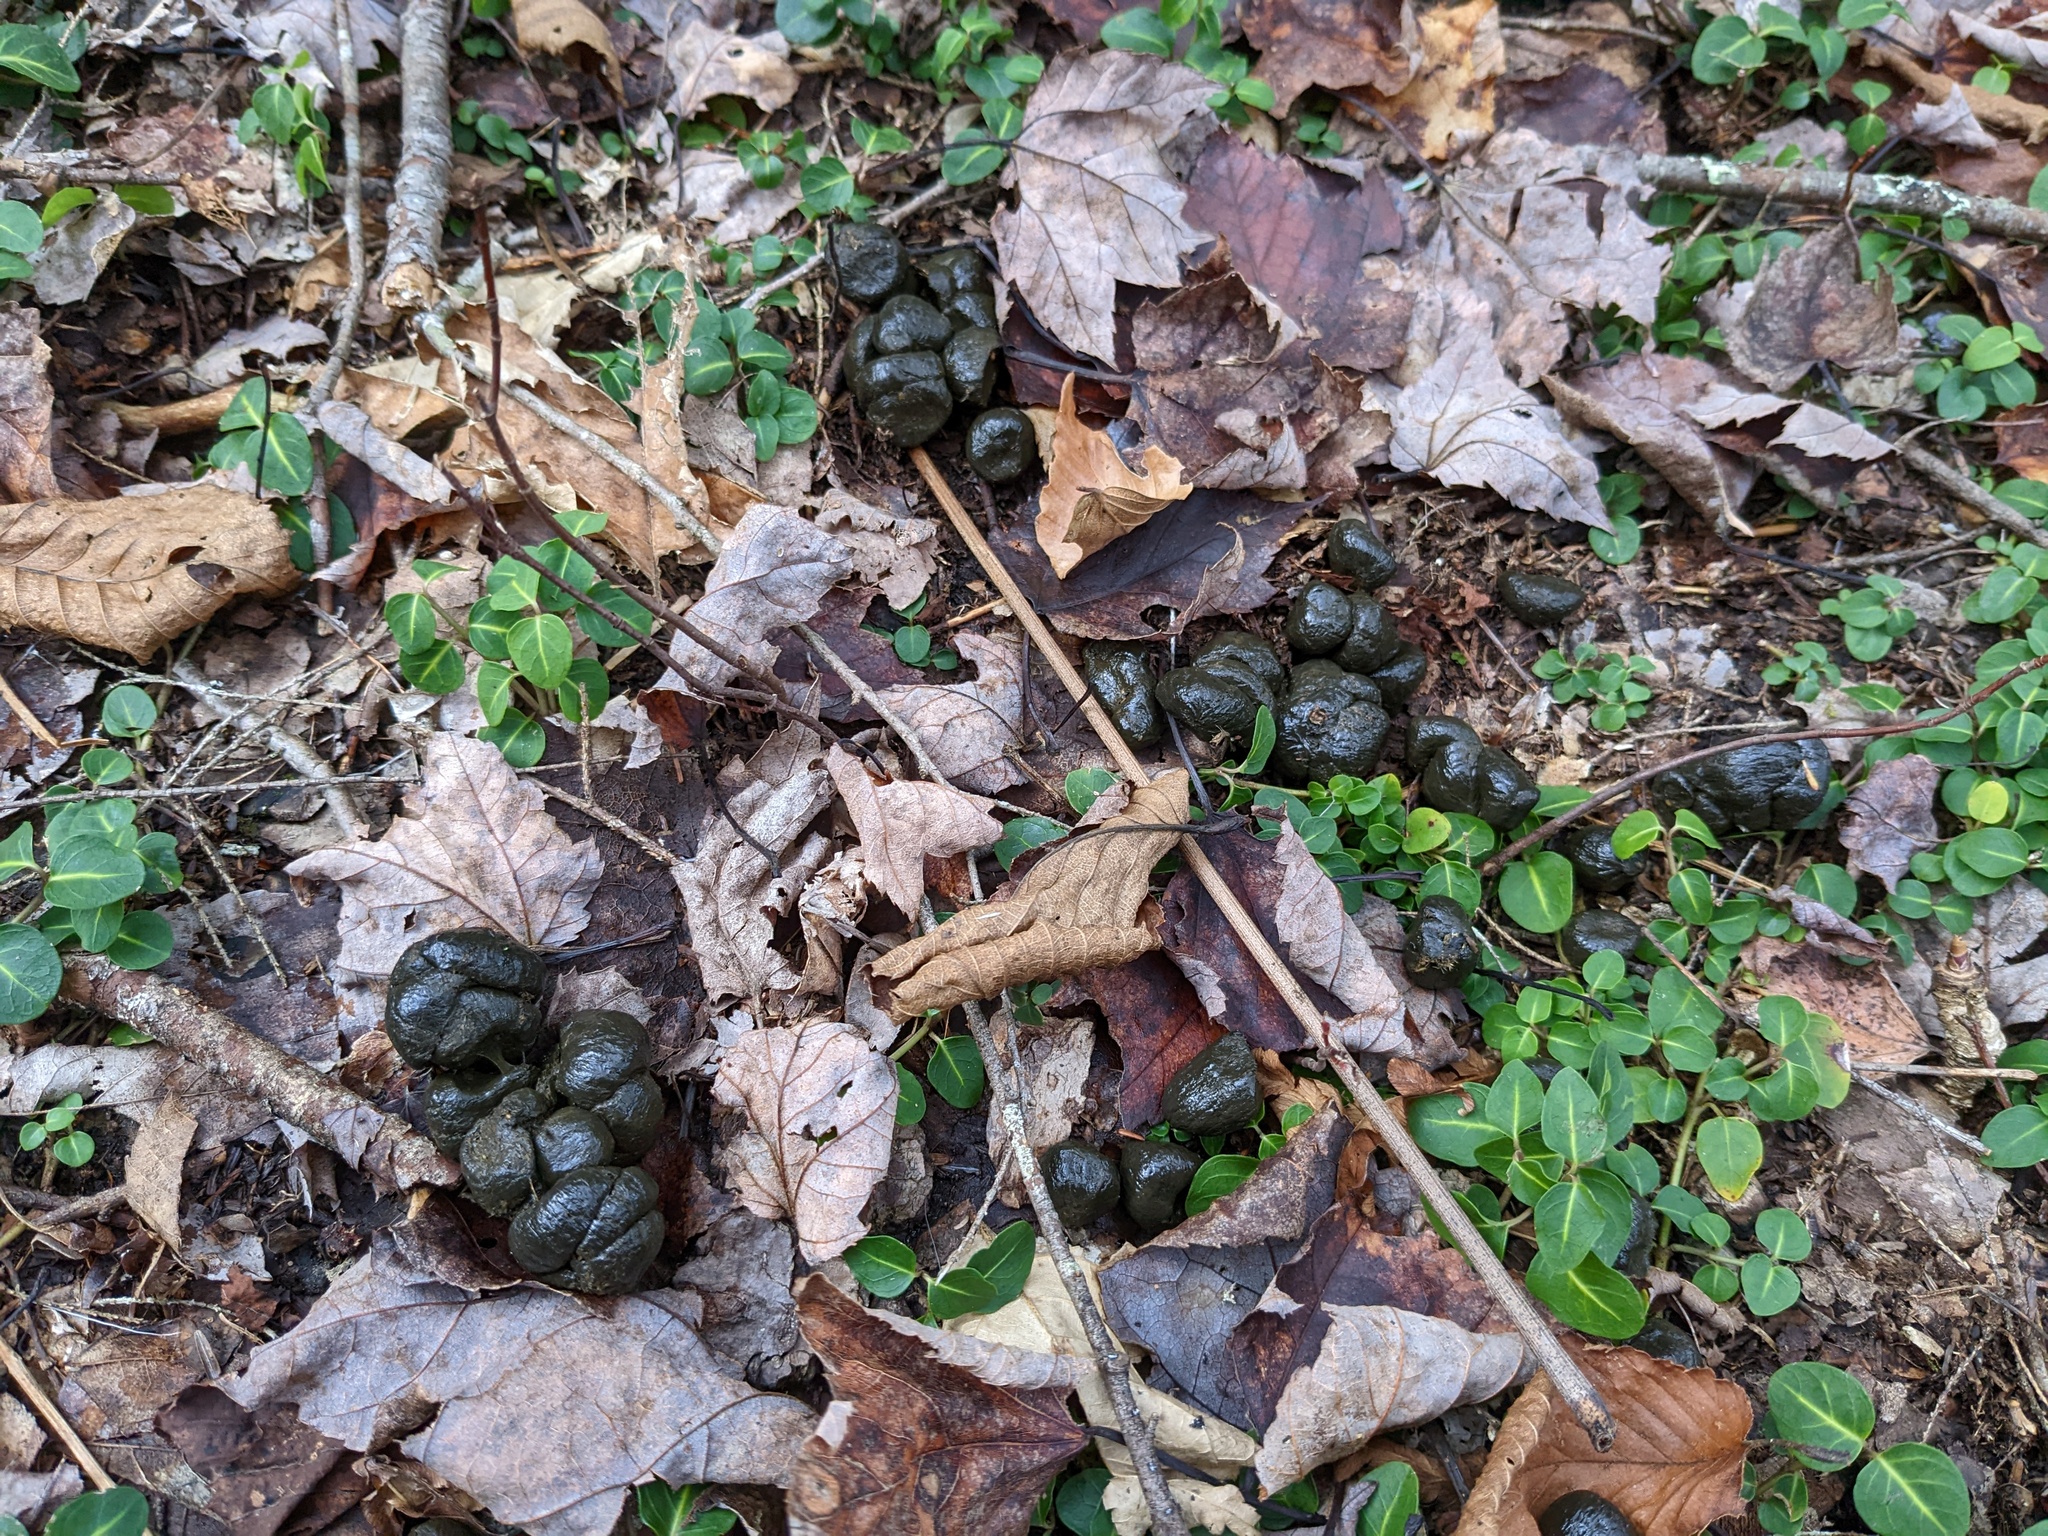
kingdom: Animalia
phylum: Chordata
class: Mammalia
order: Artiodactyla
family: Cervidae
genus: Odocoileus
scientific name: Odocoileus virginianus
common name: White-tailed deer
